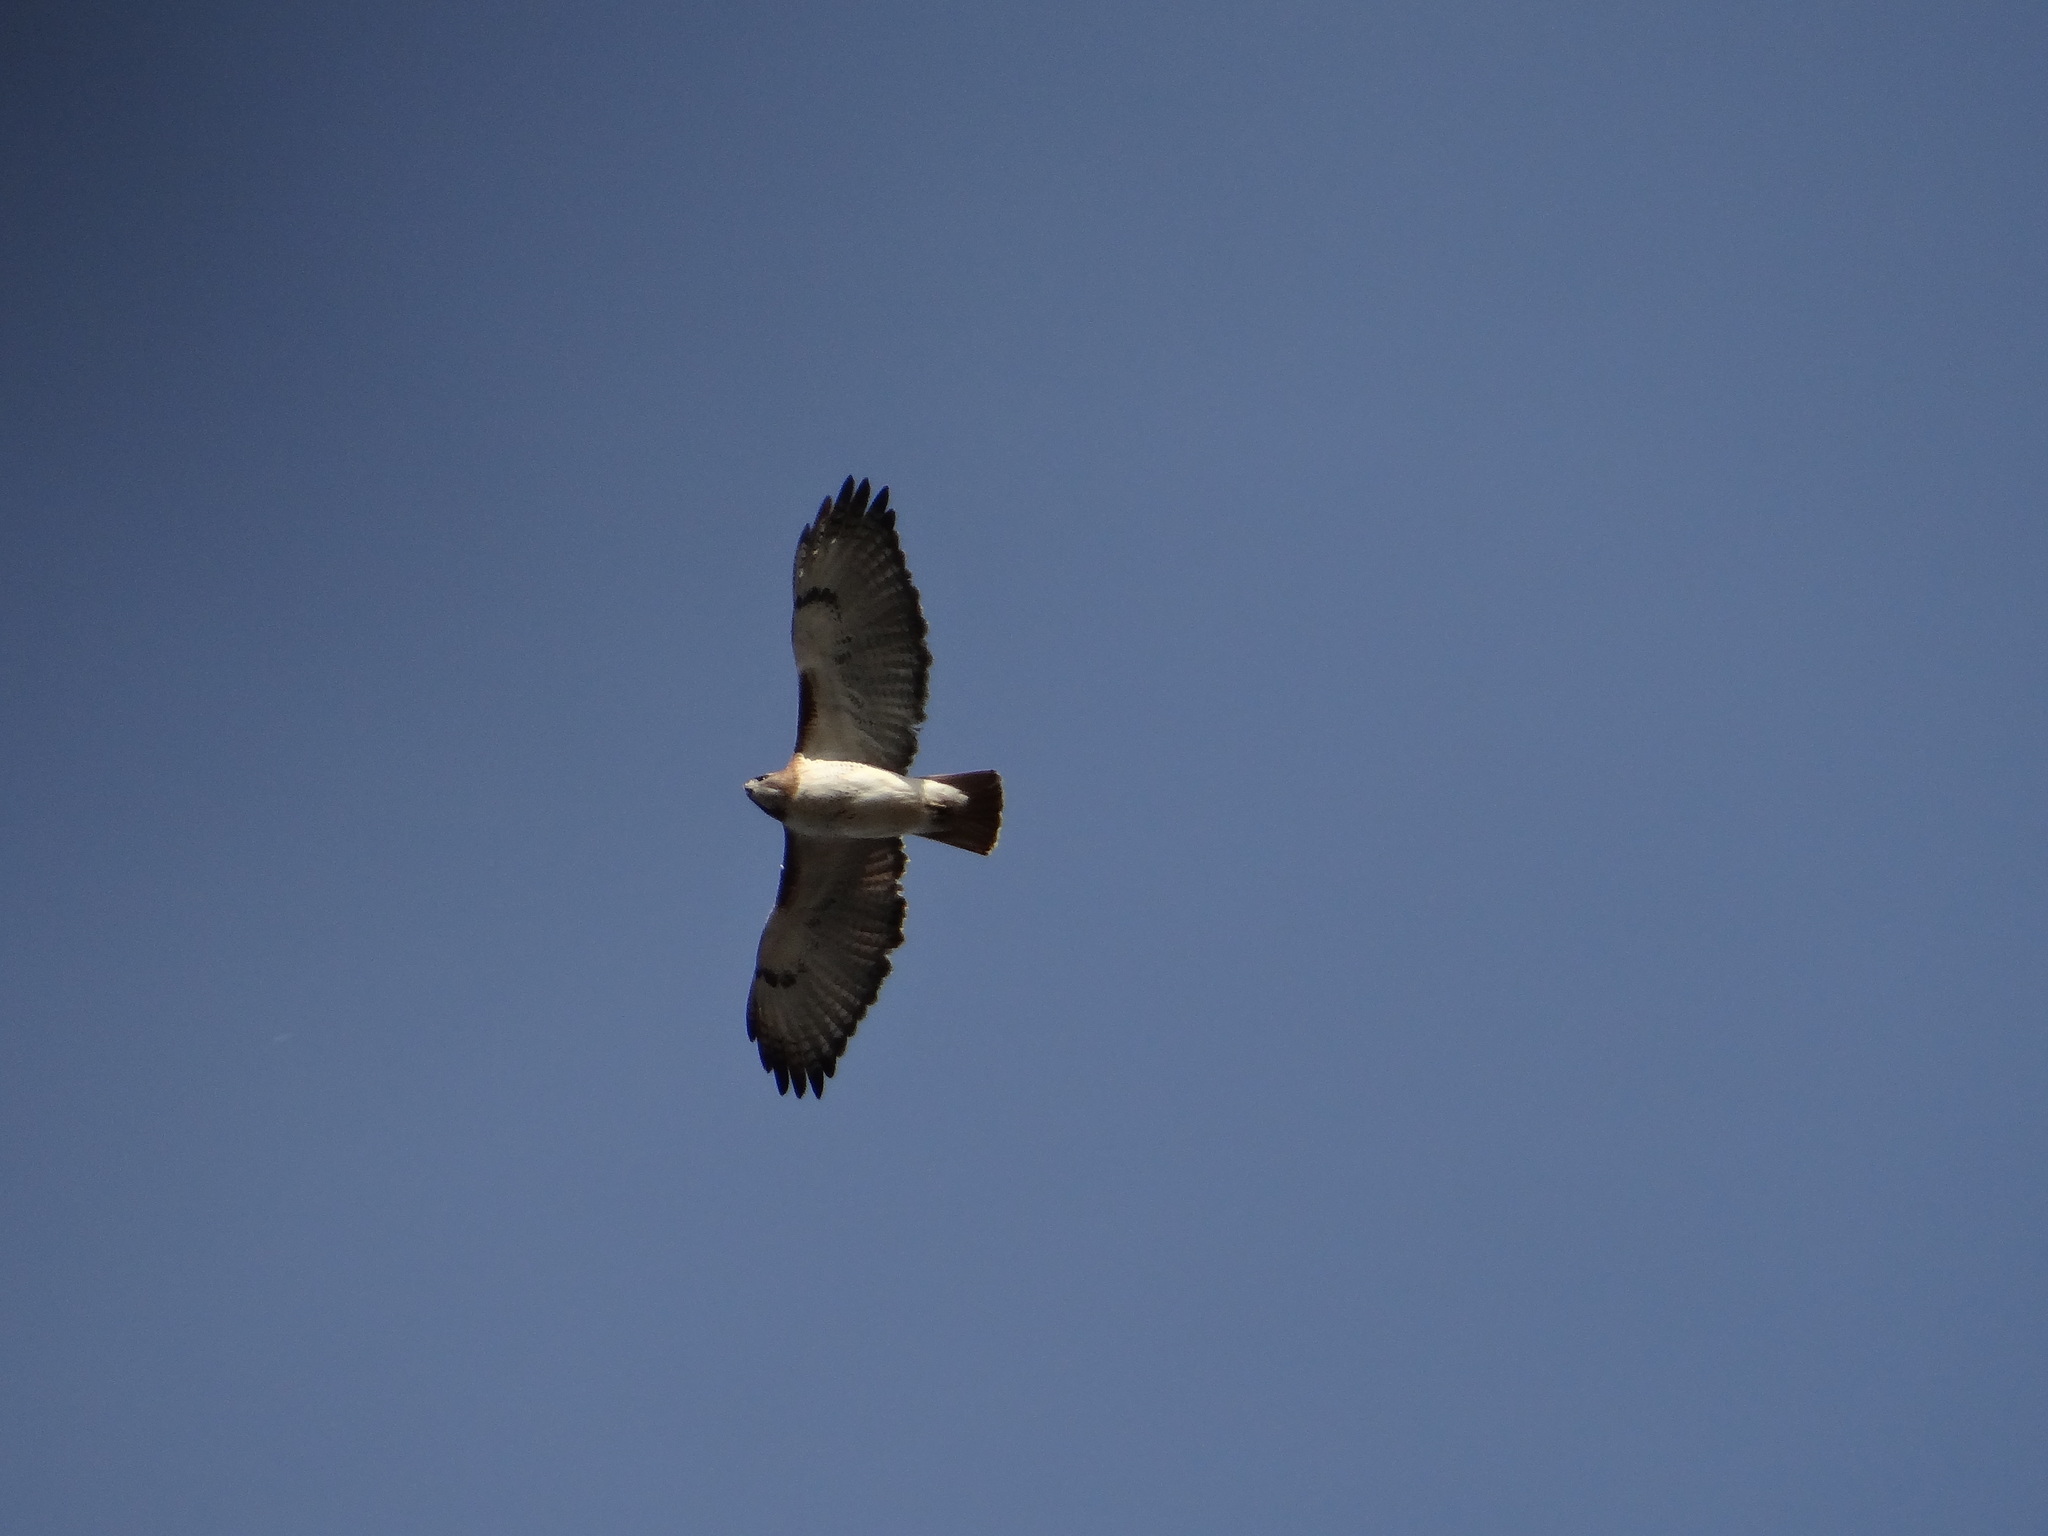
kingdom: Animalia
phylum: Chordata
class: Aves
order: Accipitriformes
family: Accipitridae
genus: Buteo
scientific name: Buteo jamaicensis
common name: Red-tailed hawk
